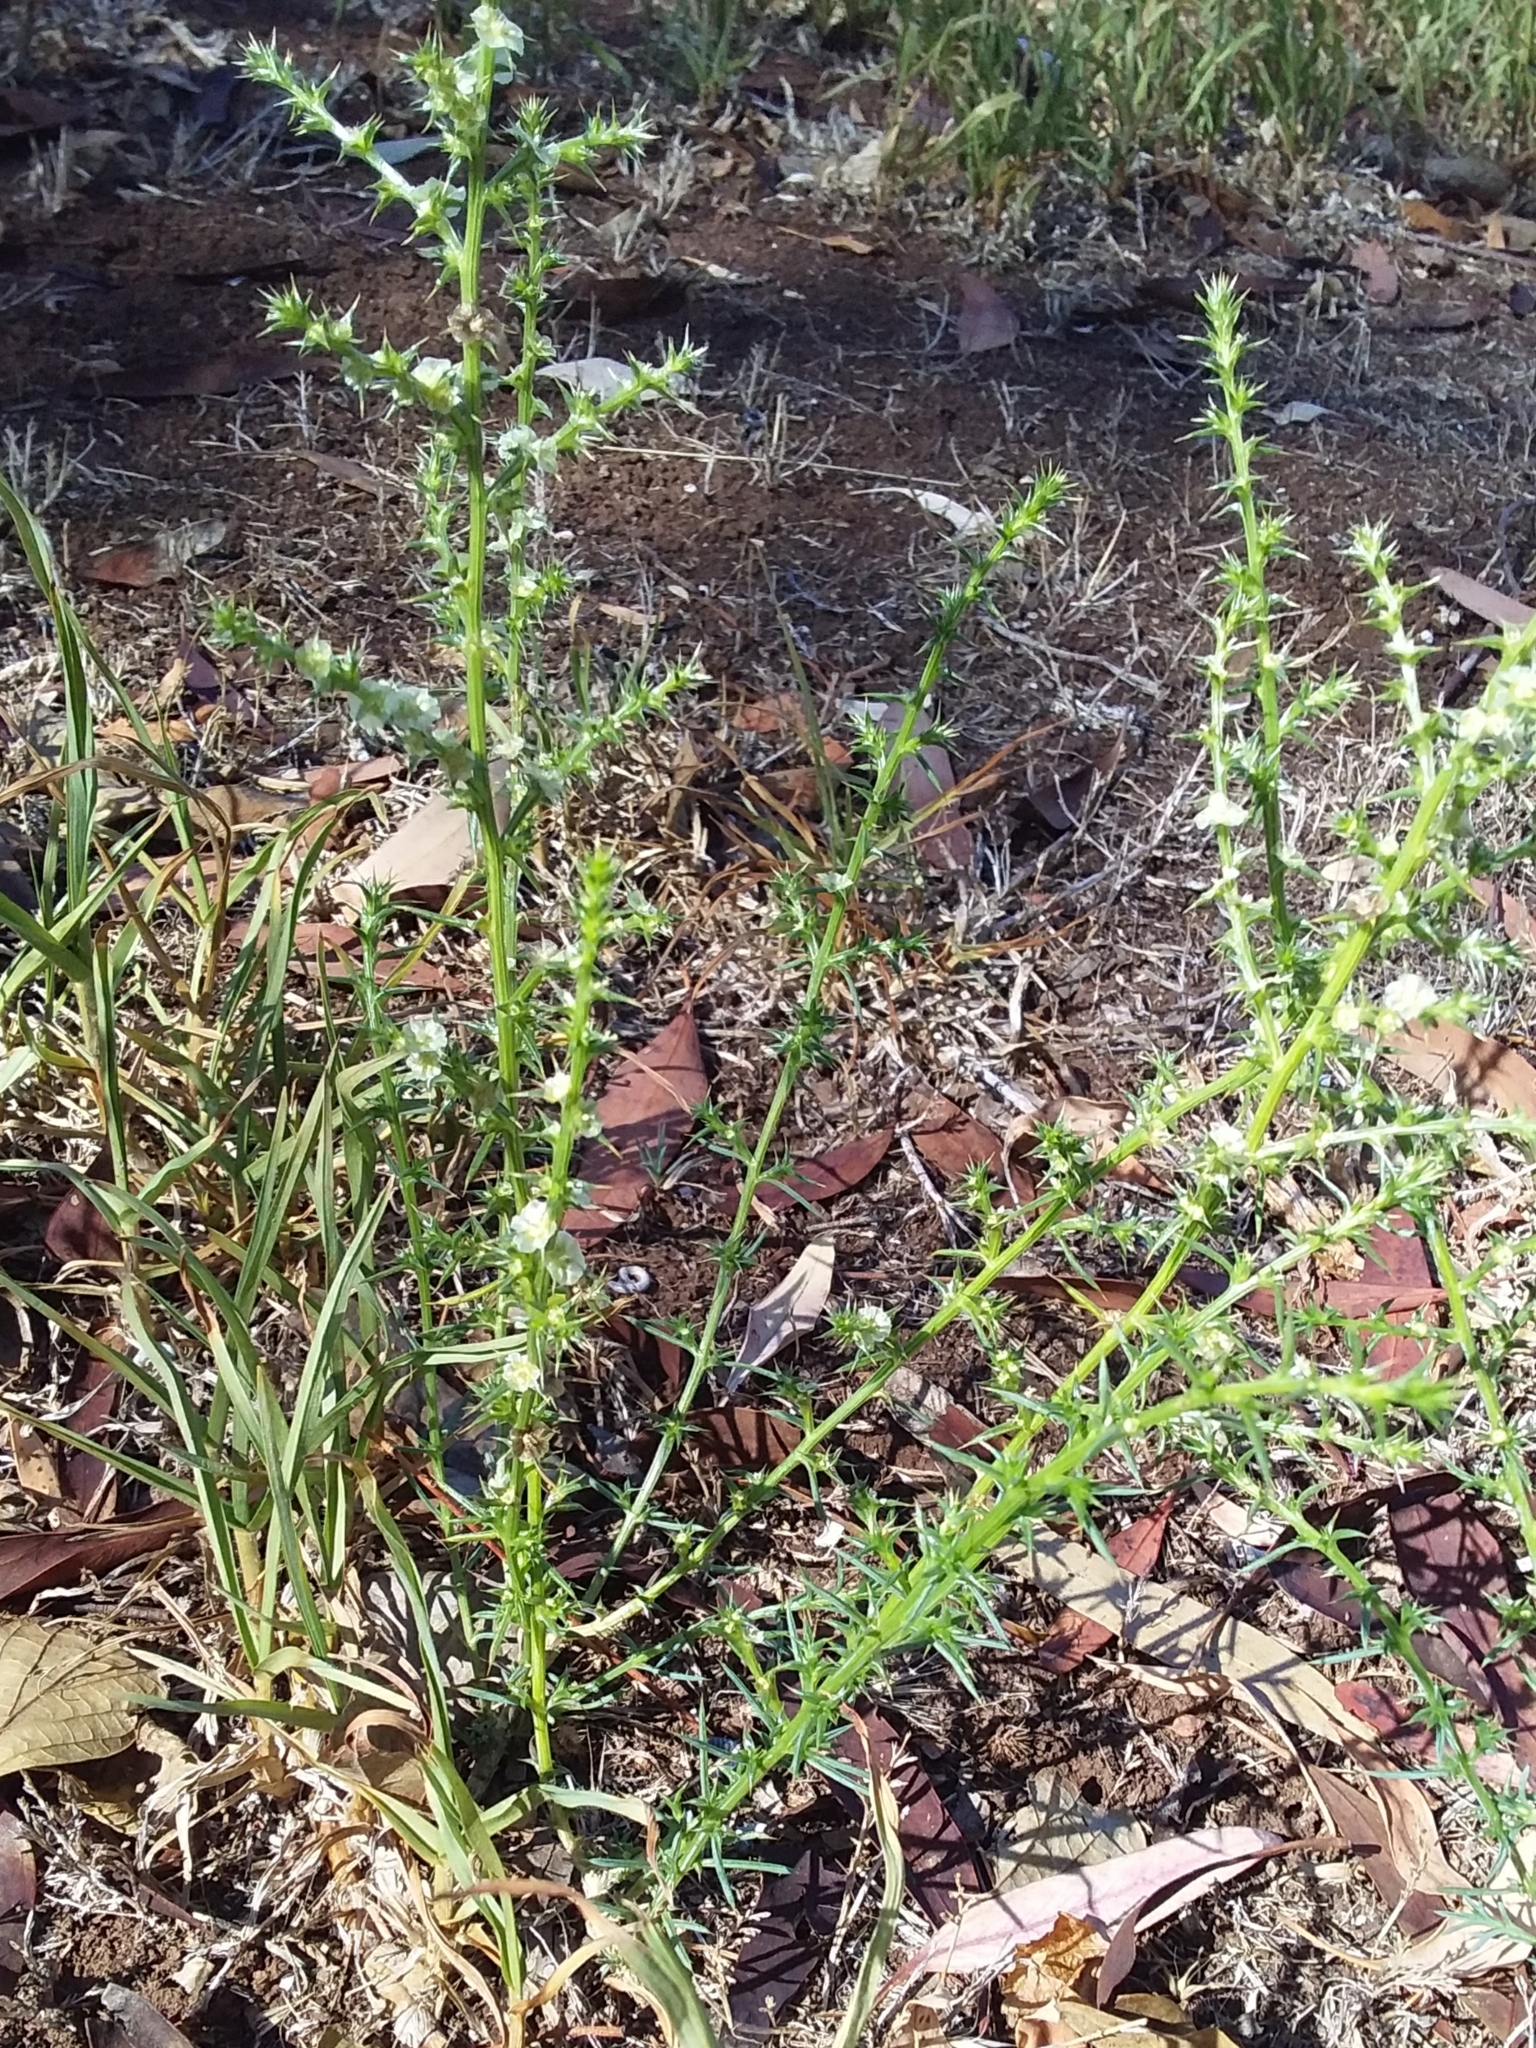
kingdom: Plantae
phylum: Tracheophyta
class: Magnoliopsida
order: Caryophyllales
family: Amaranthaceae
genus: Salsola
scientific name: Salsola australis
